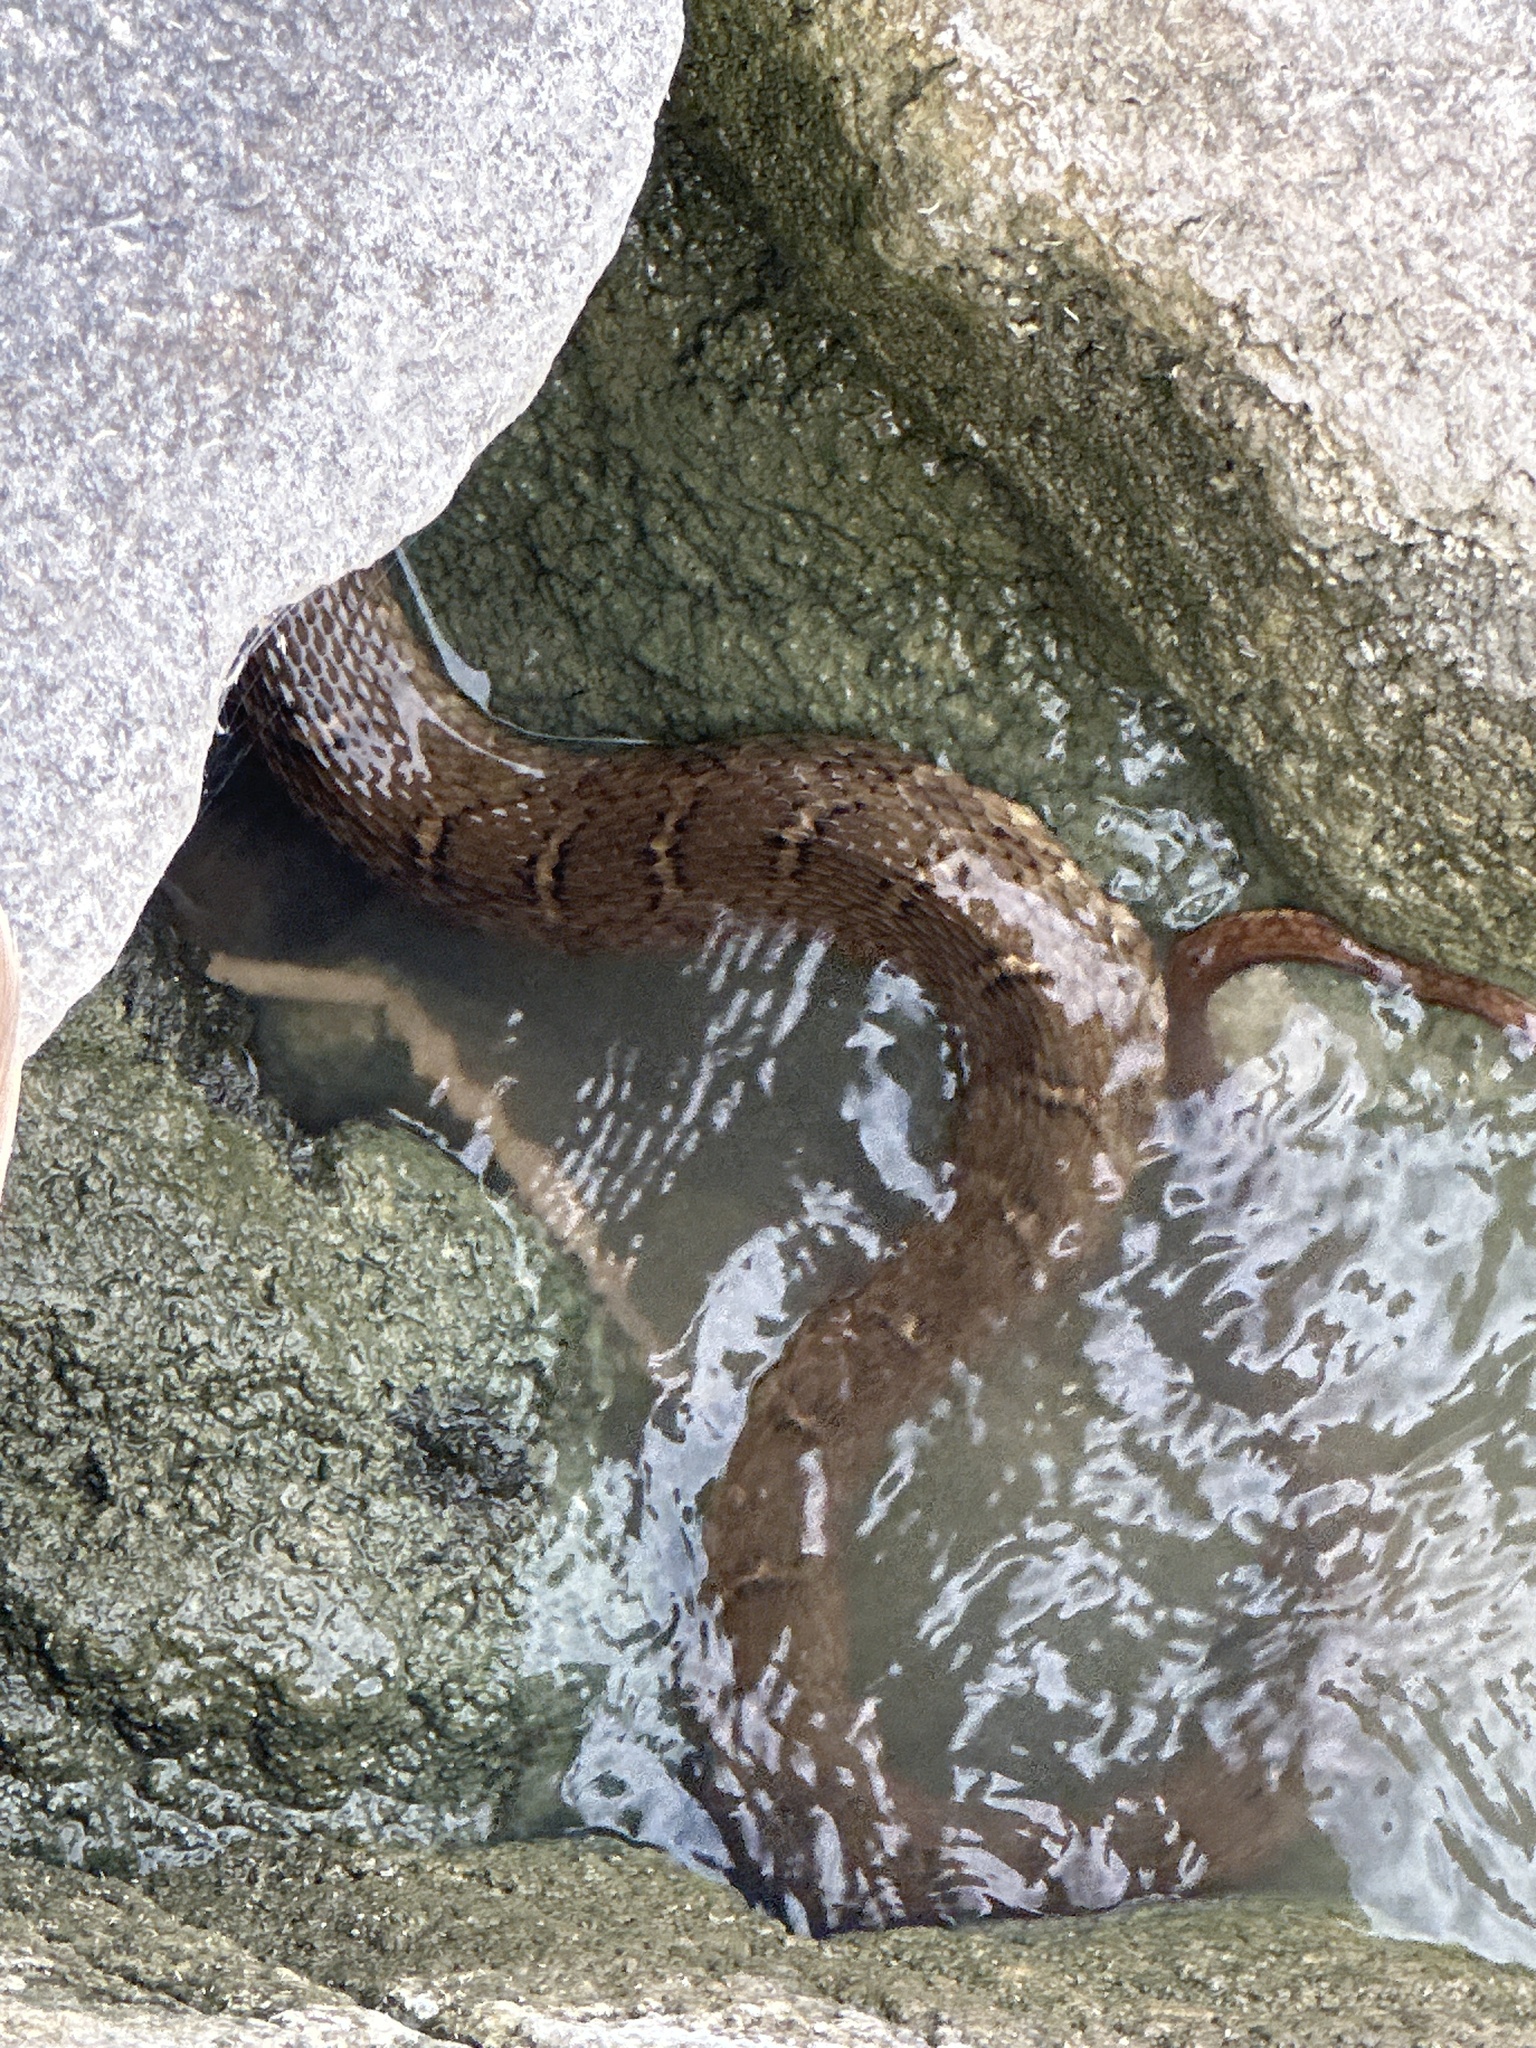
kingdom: Animalia
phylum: Chordata
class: Squamata
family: Colubridae
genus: Nerodia
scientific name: Nerodia erythrogaster
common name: Plainbelly water snake
